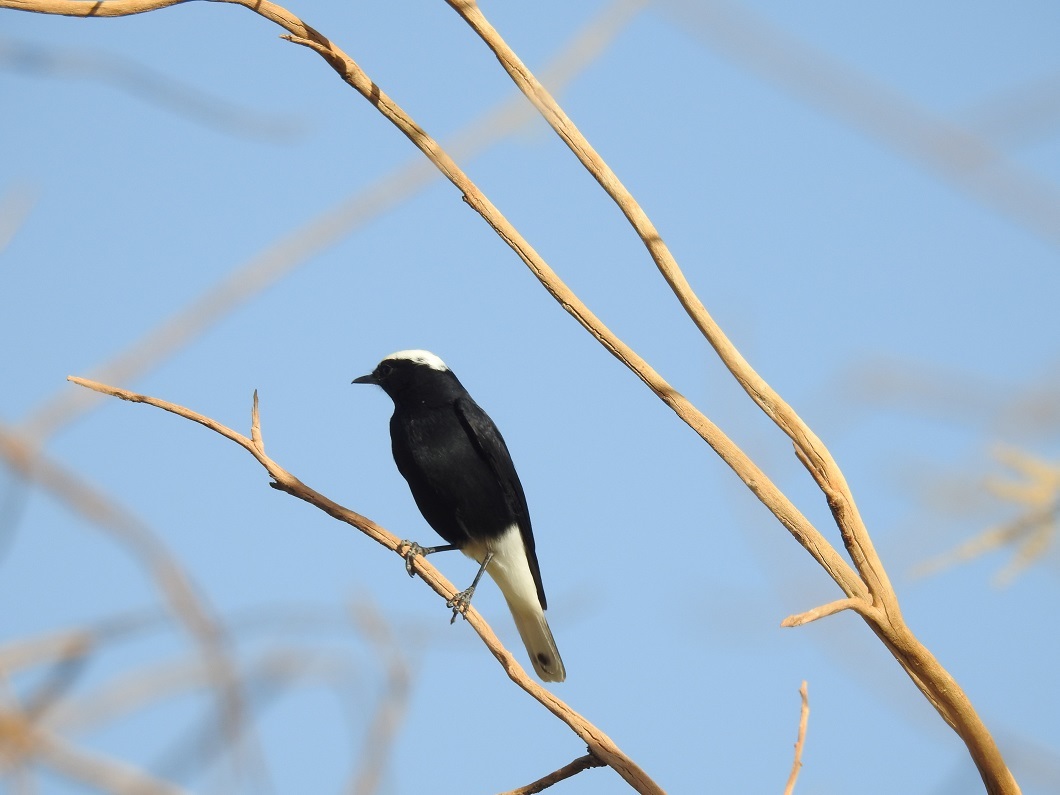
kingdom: Animalia
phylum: Chordata
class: Aves
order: Passeriformes
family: Muscicapidae
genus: Oenanthe
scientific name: Oenanthe leucopyga
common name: White-crowned wheatear
